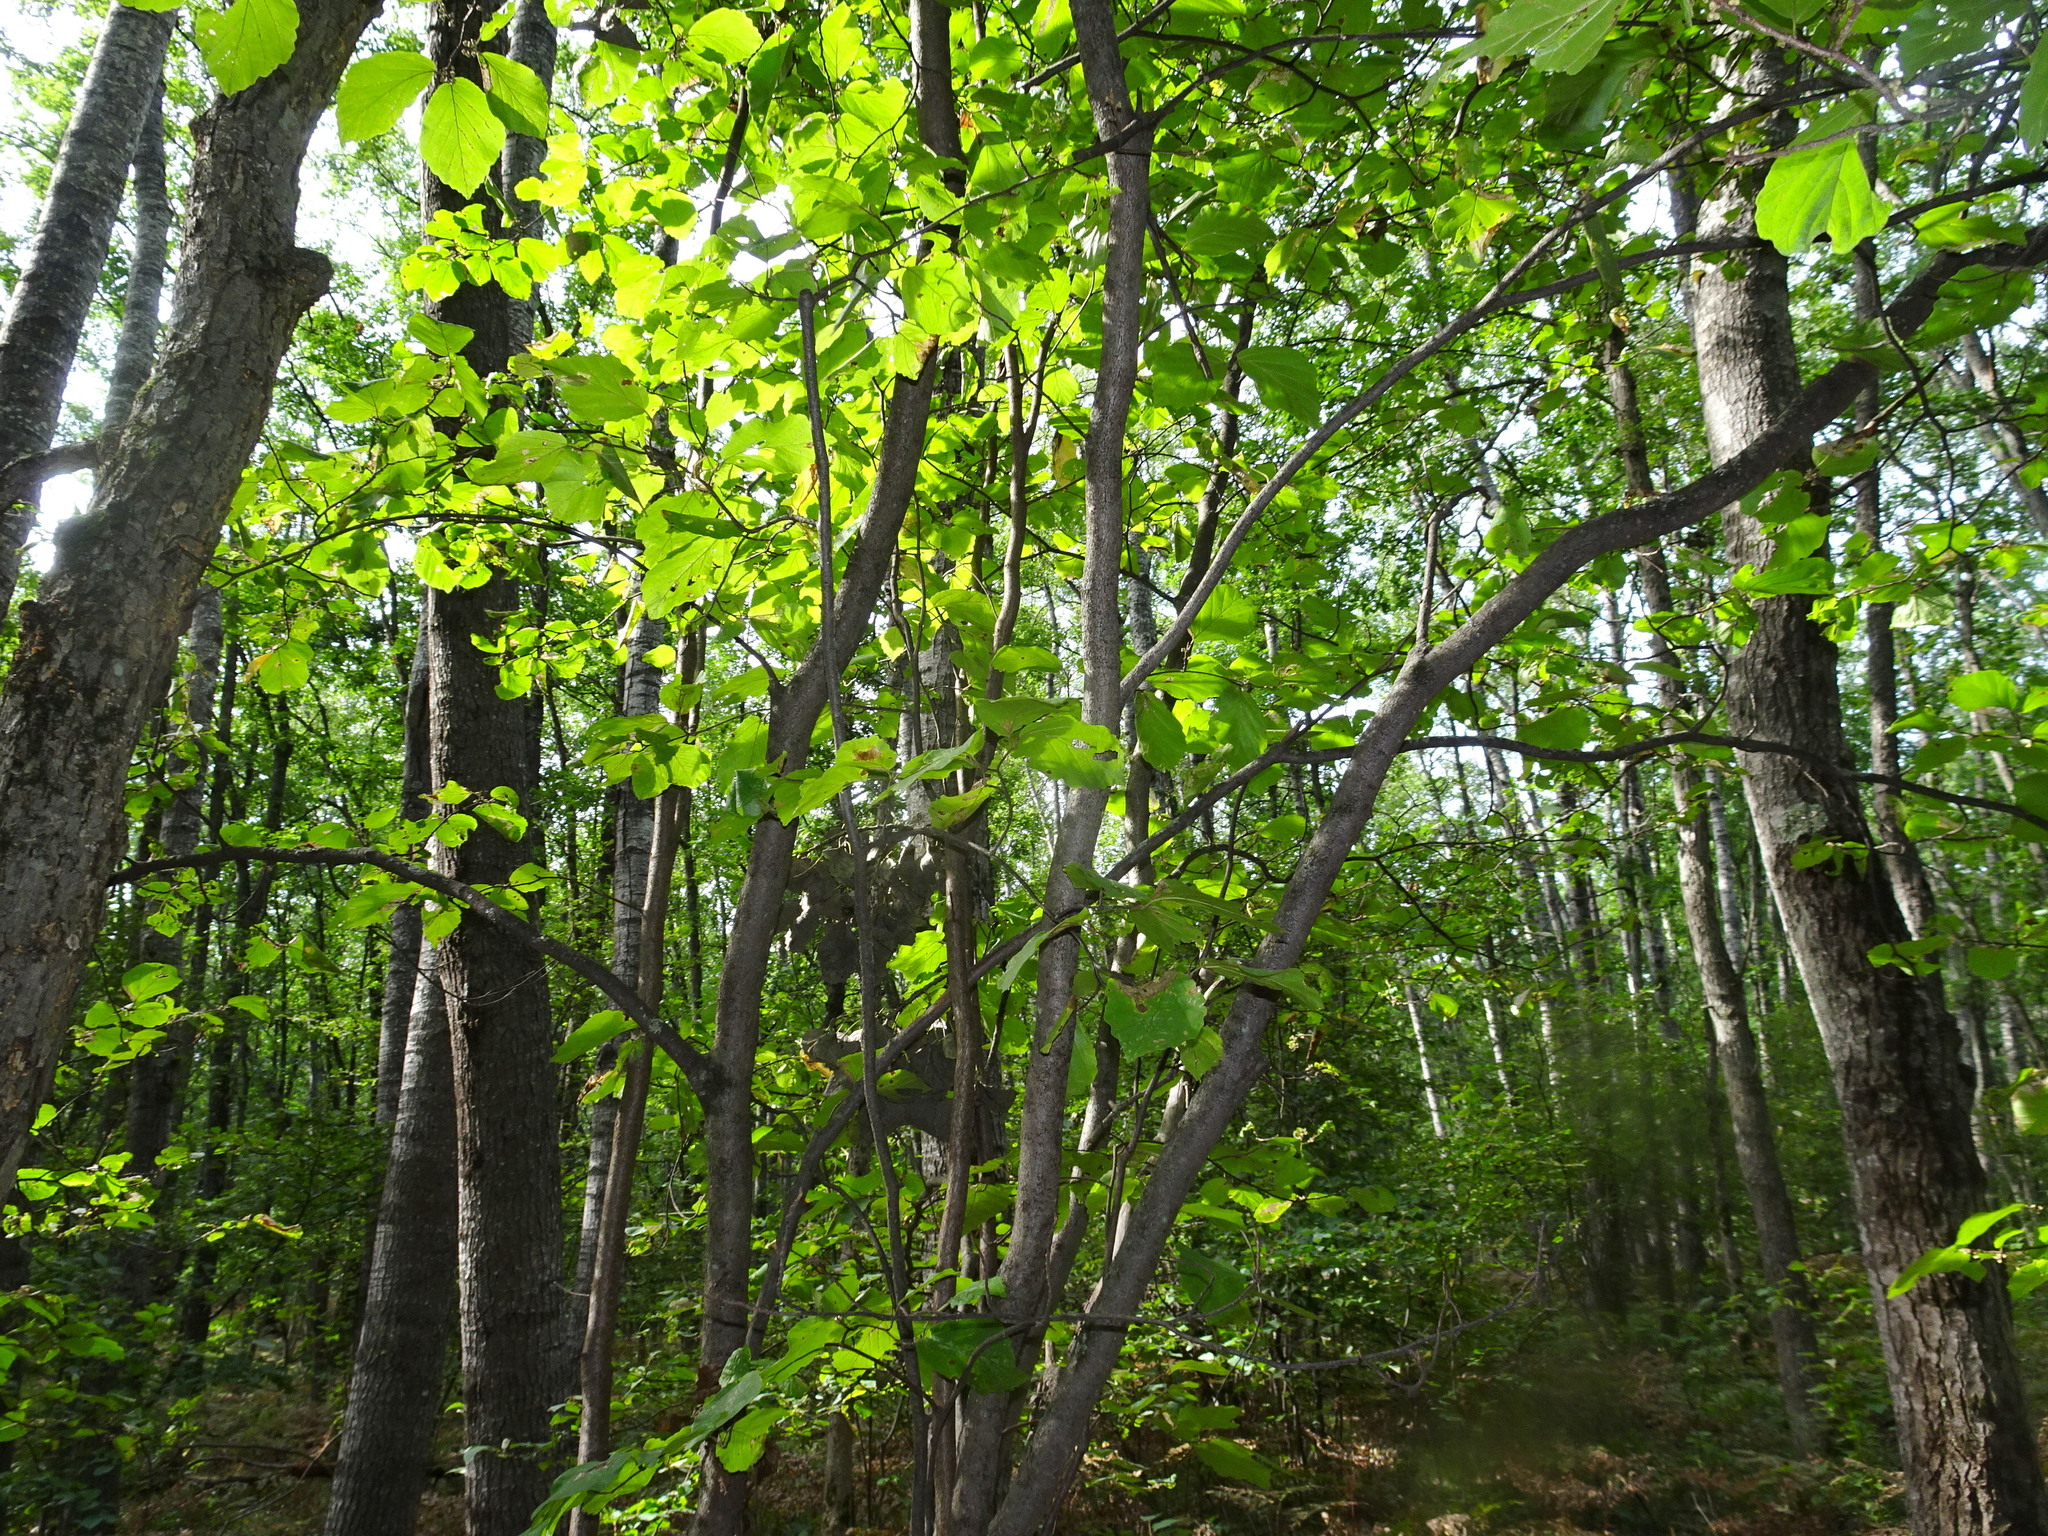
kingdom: Plantae
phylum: Tracheophyta
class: Magnoliopsida
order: Saxifragales
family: Hamamelidaceae
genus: Hamamelis
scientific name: Hamamelis virginiana
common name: Witch-hazel
